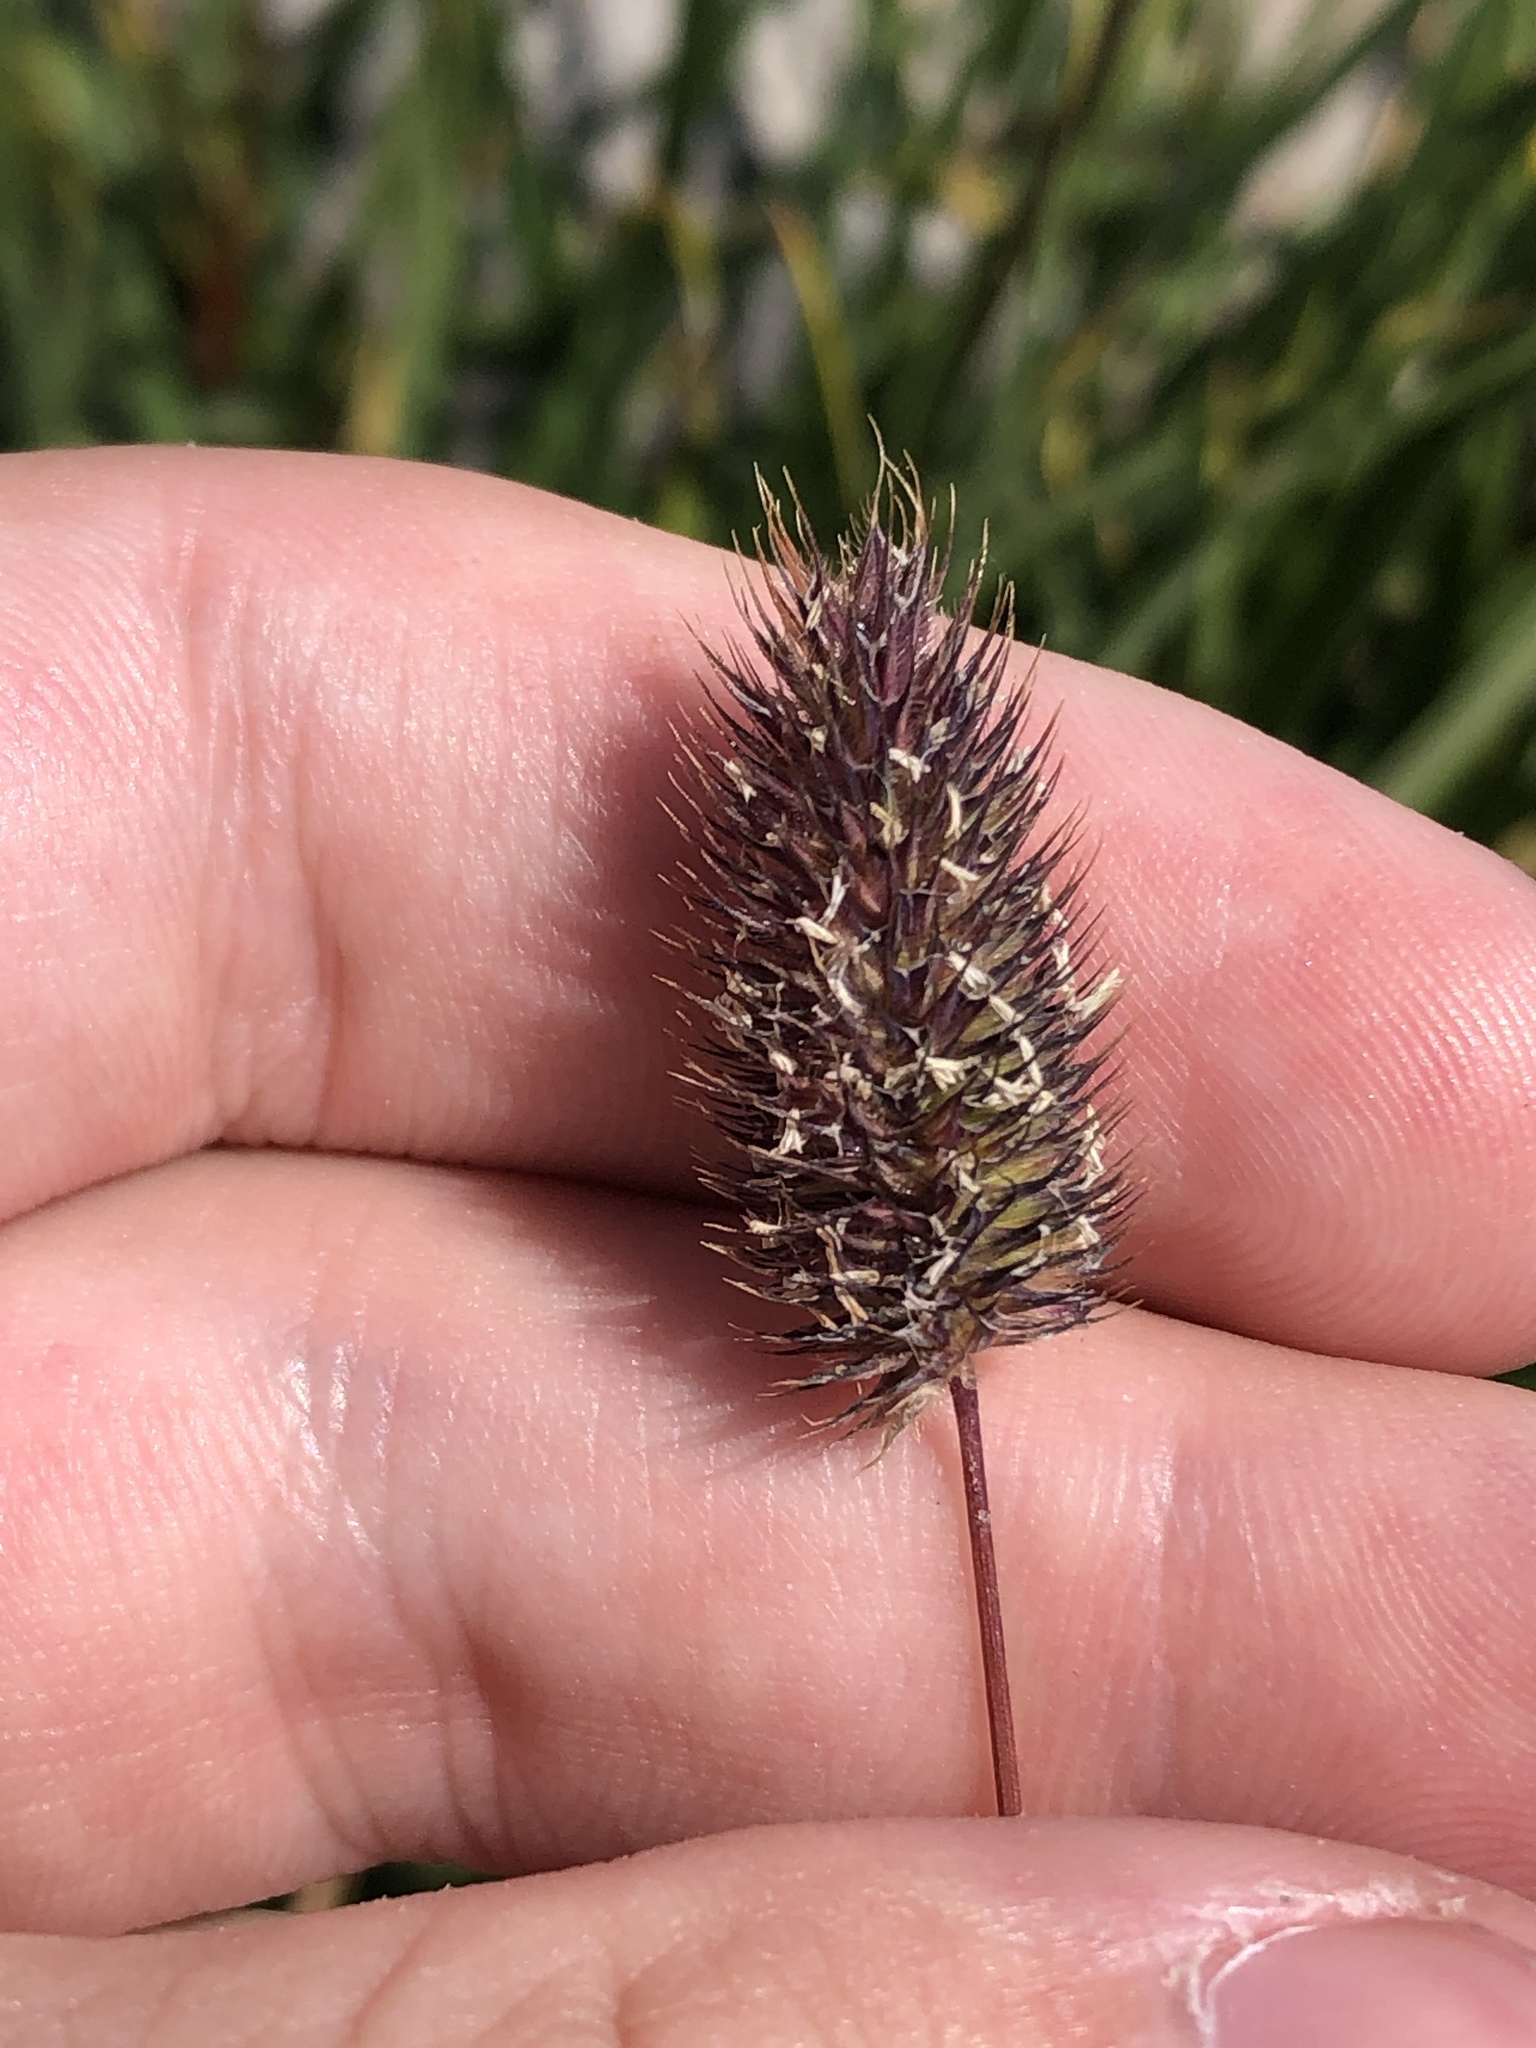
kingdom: Plantae
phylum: Tracheophyta
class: Liliopsida
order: Poales
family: Poaceae
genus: Phleum
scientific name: Phleum alpinum
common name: Alpine cat's-tail
